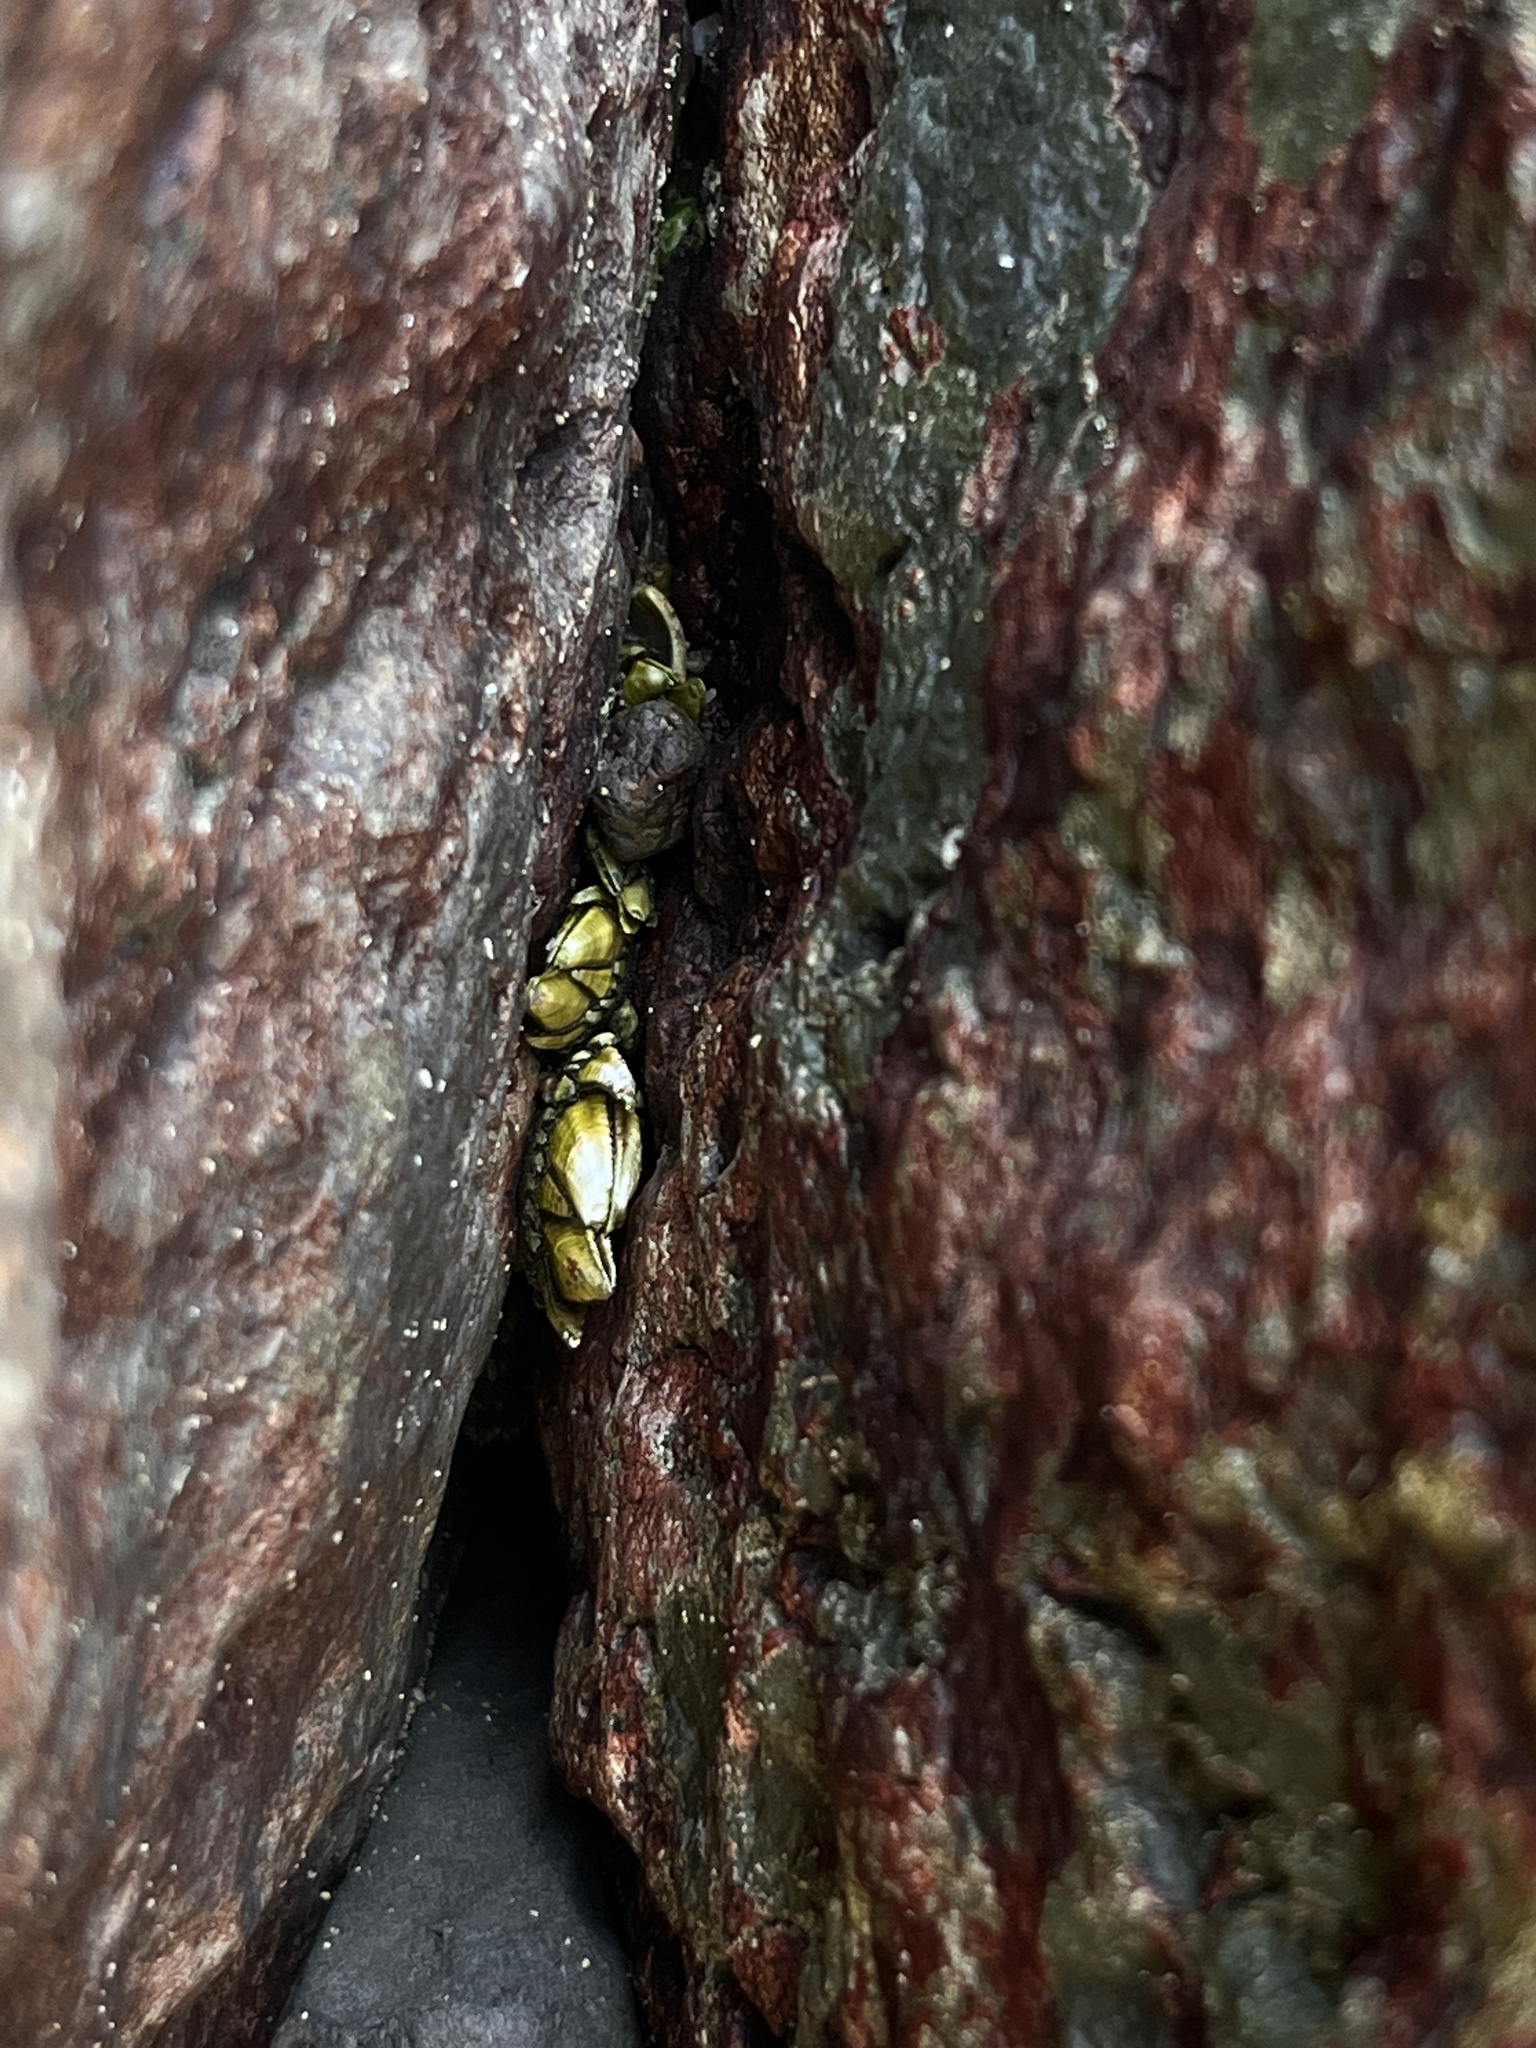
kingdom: Animalia
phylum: Arthropoda
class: Maxillopoda
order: Pedunculata
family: Pollicipedidae
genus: Capitulum
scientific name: Capitulum mitella
